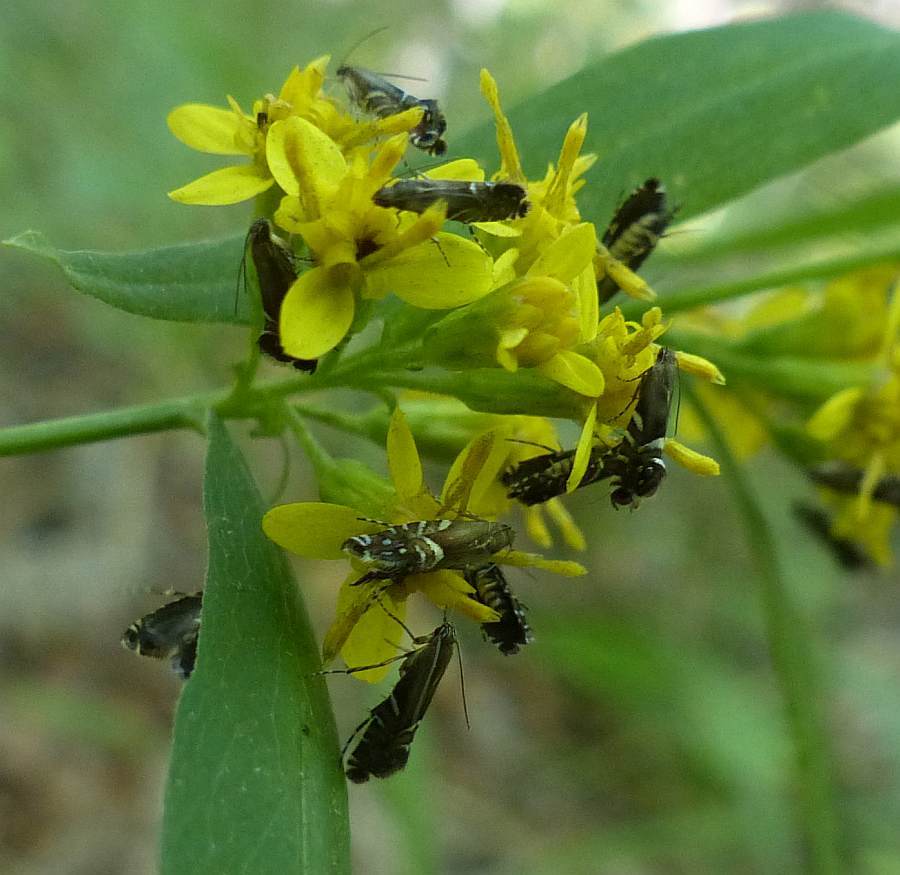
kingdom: Animalia
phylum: Arthropoda
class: Insecta
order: Lepidoptera
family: Glyphipterigidae
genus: Glyphipterix
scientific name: Glyphipterix Diploschizia impigritella
